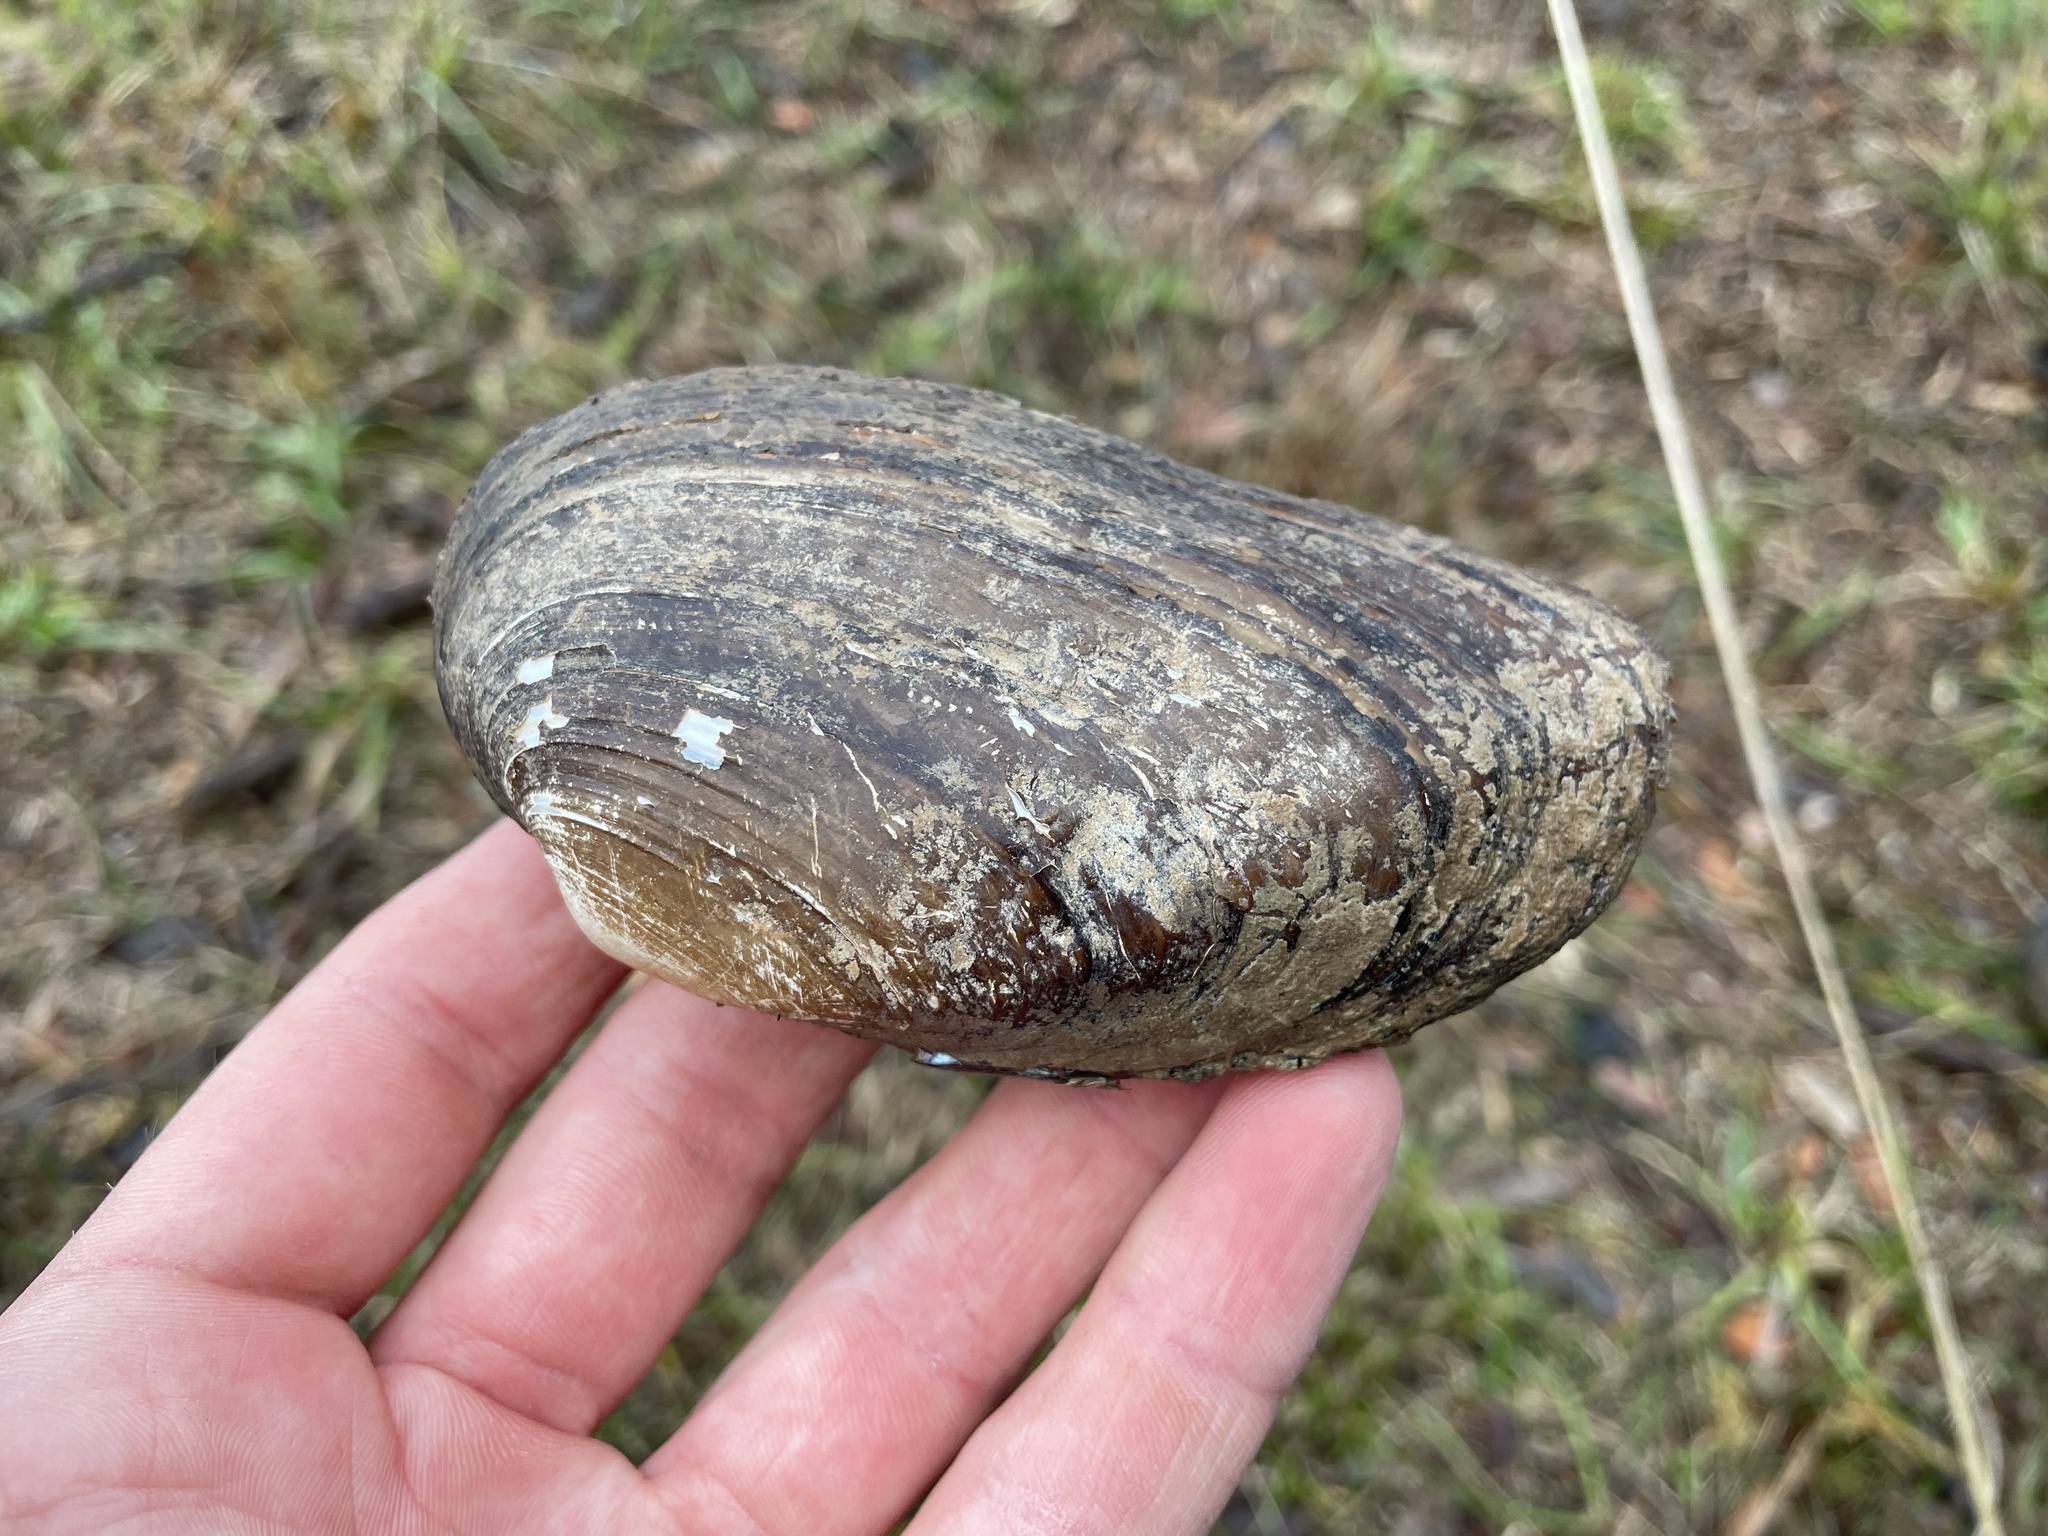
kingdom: Animalia
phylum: Mollusca
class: Bivalvia
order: Unionida
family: Unionidae
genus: Uniomerus
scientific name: Uniomerus tetralasmus
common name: Pondhorn
